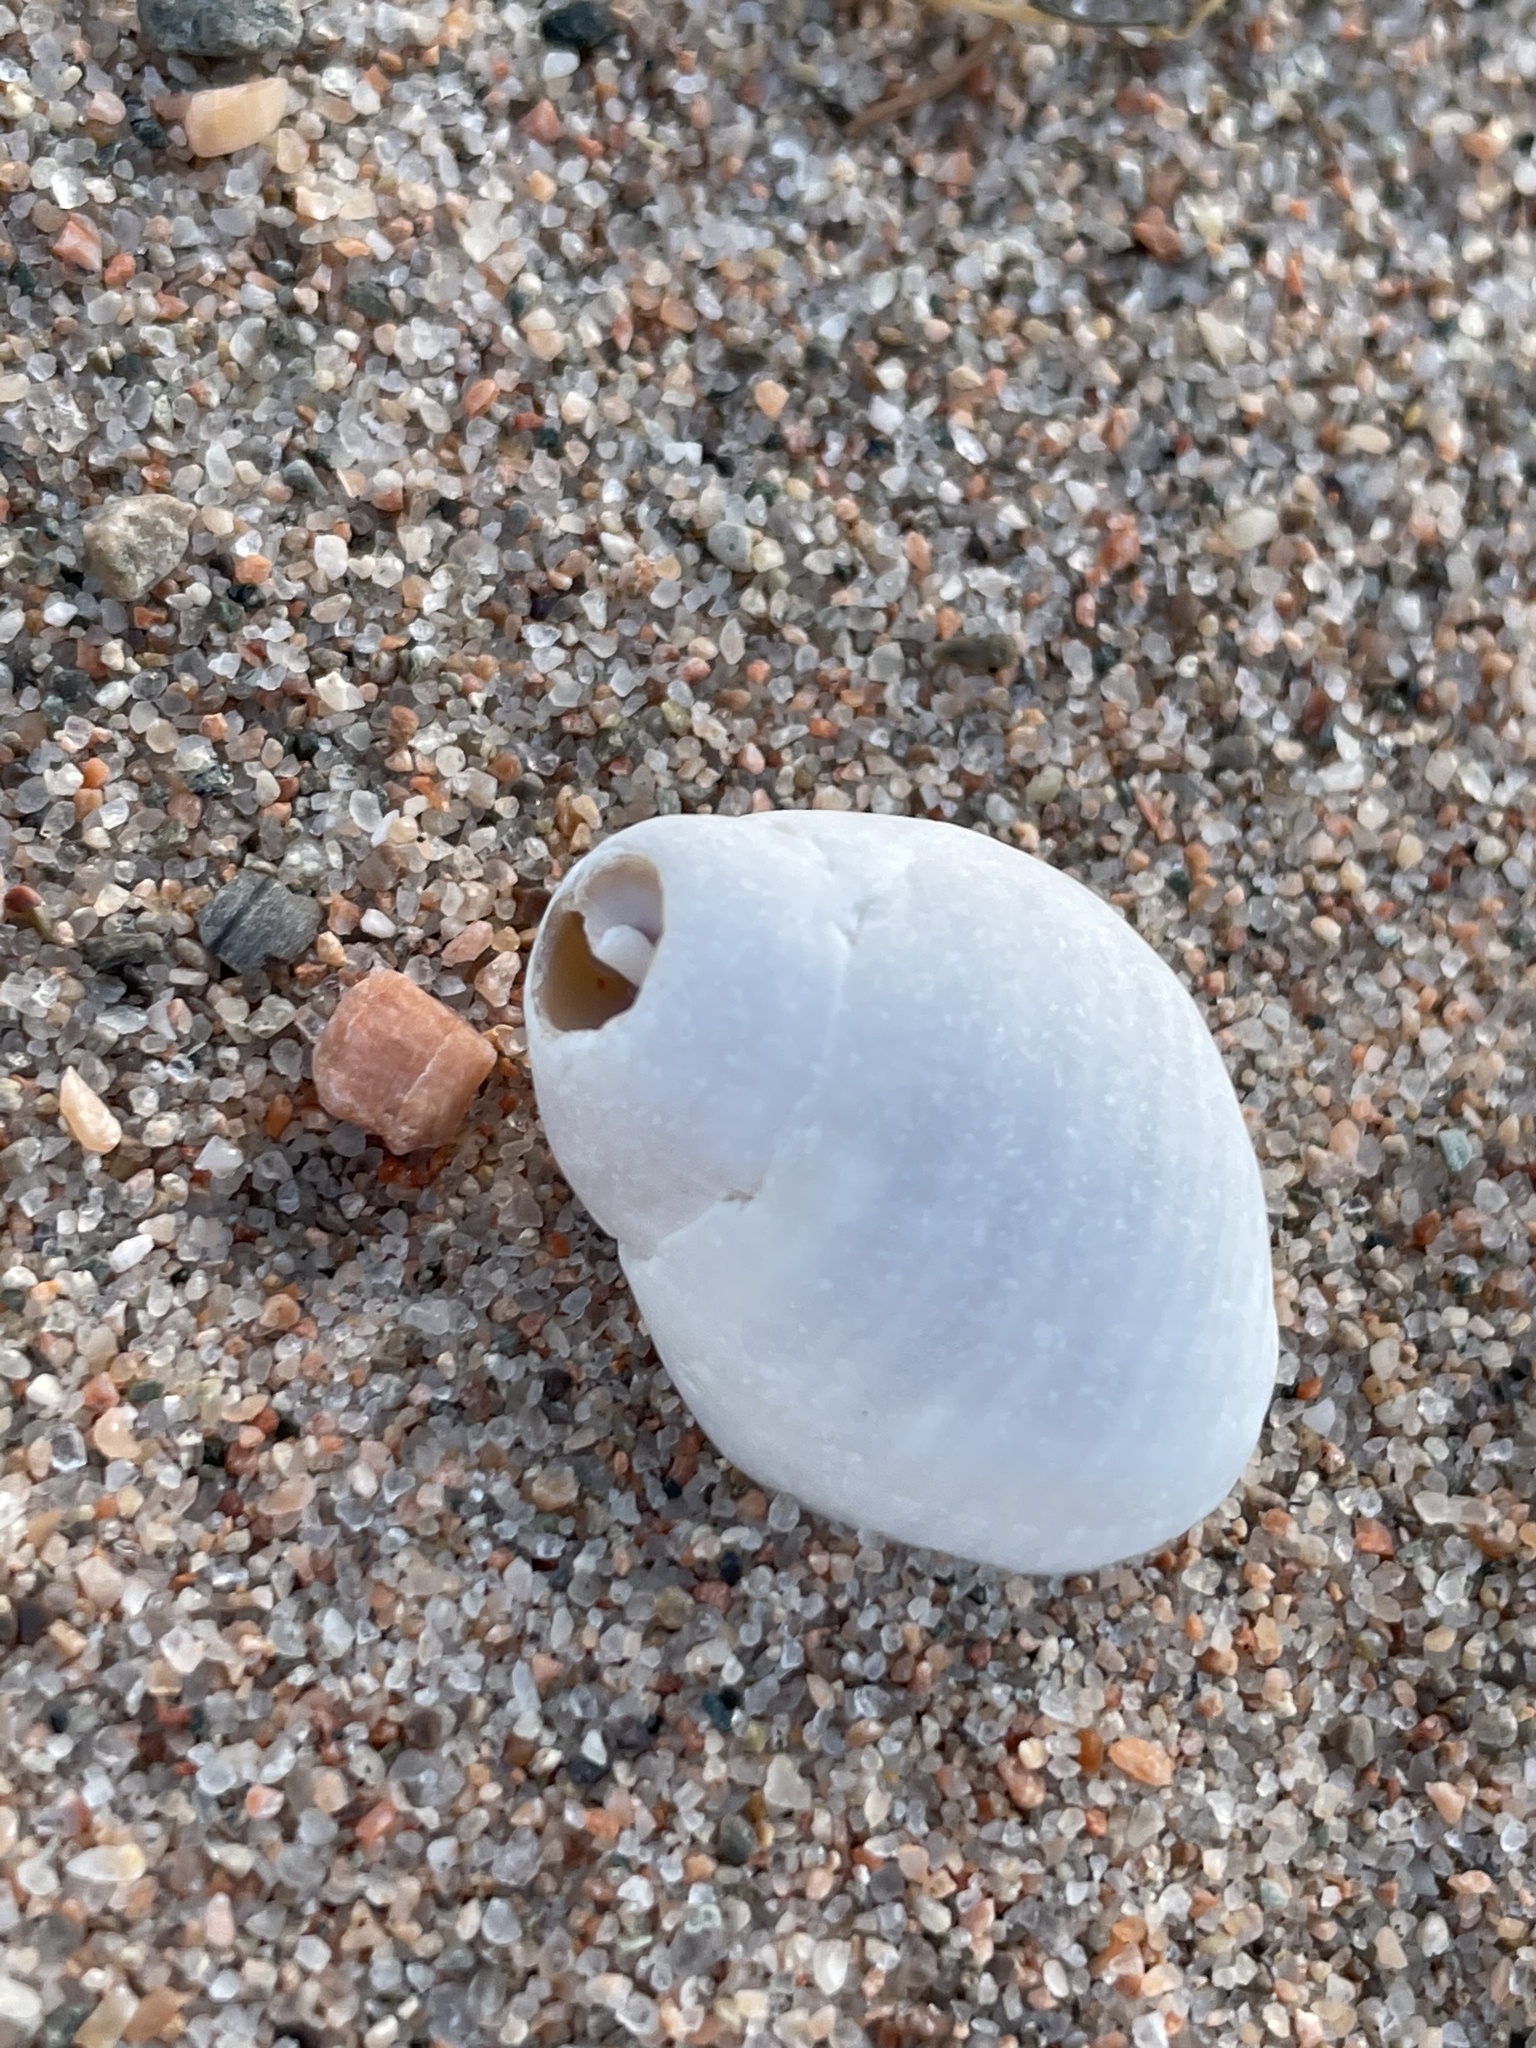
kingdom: Animalia
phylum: Mollusca
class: Gastropoda
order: Neogastropoda
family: Muricidae
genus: Nucella
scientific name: Nucella lapillus
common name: Dog whelk
